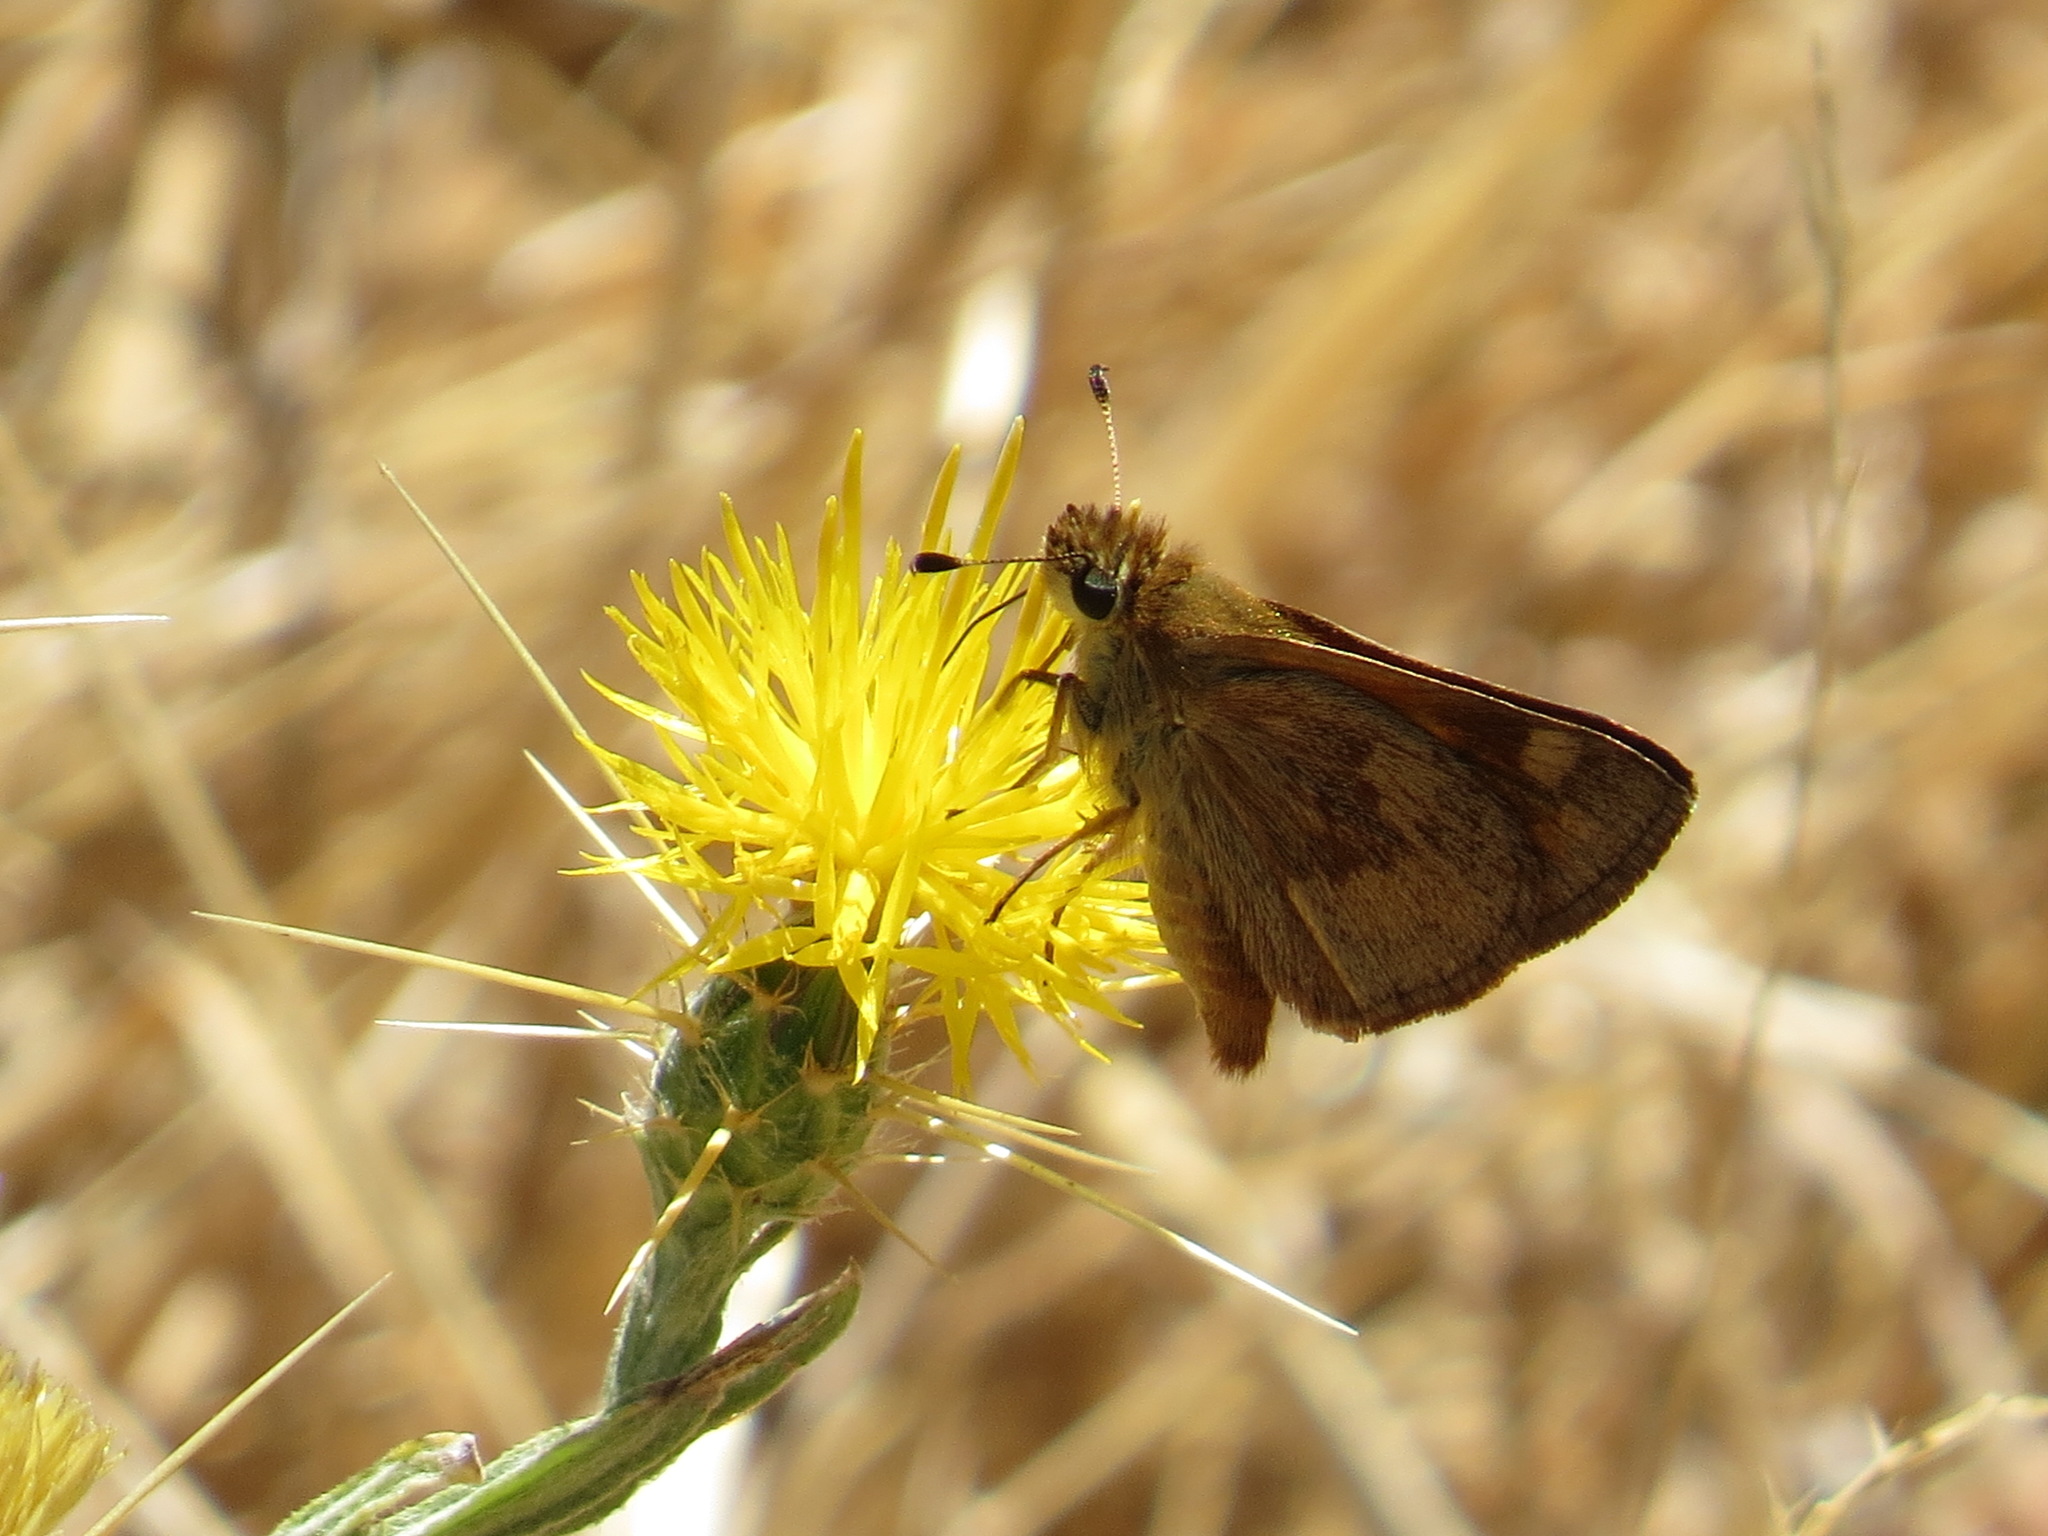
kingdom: Animalia
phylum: Arthropoda
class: Insecta
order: Lepidoptera
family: Hesperiidae
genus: Ochlodes
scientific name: Ochlodes sylvanoides
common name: Woodland skipper
